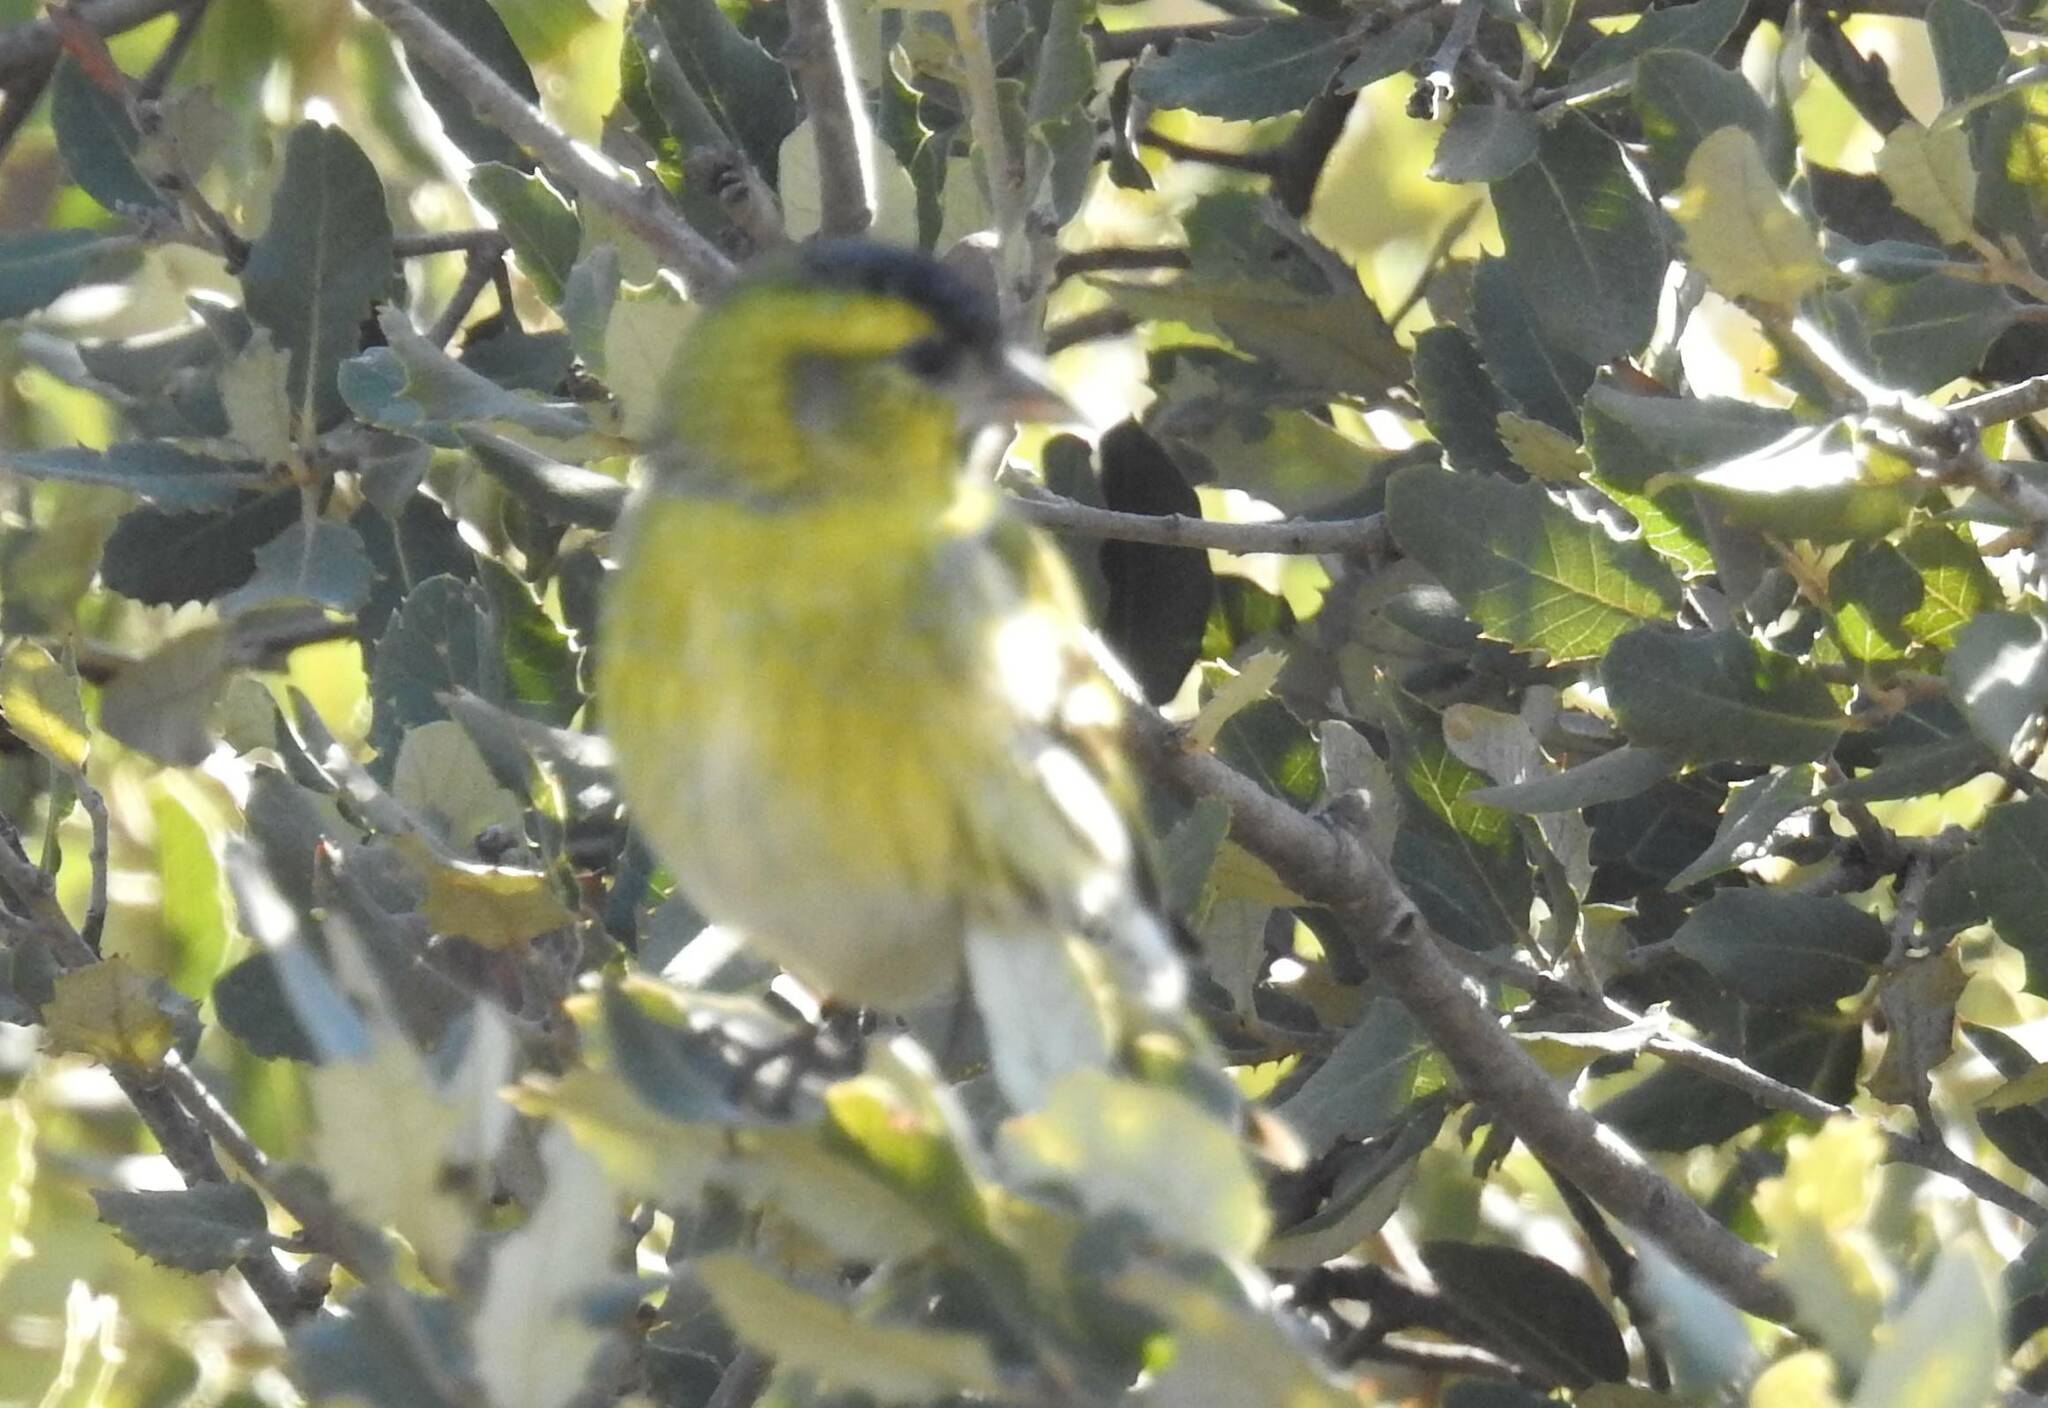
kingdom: Animalia
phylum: Chordata
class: Aves
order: Passeriformes
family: Fringillidae
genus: Spinus
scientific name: Spinus spinus
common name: Eurasian siskin
